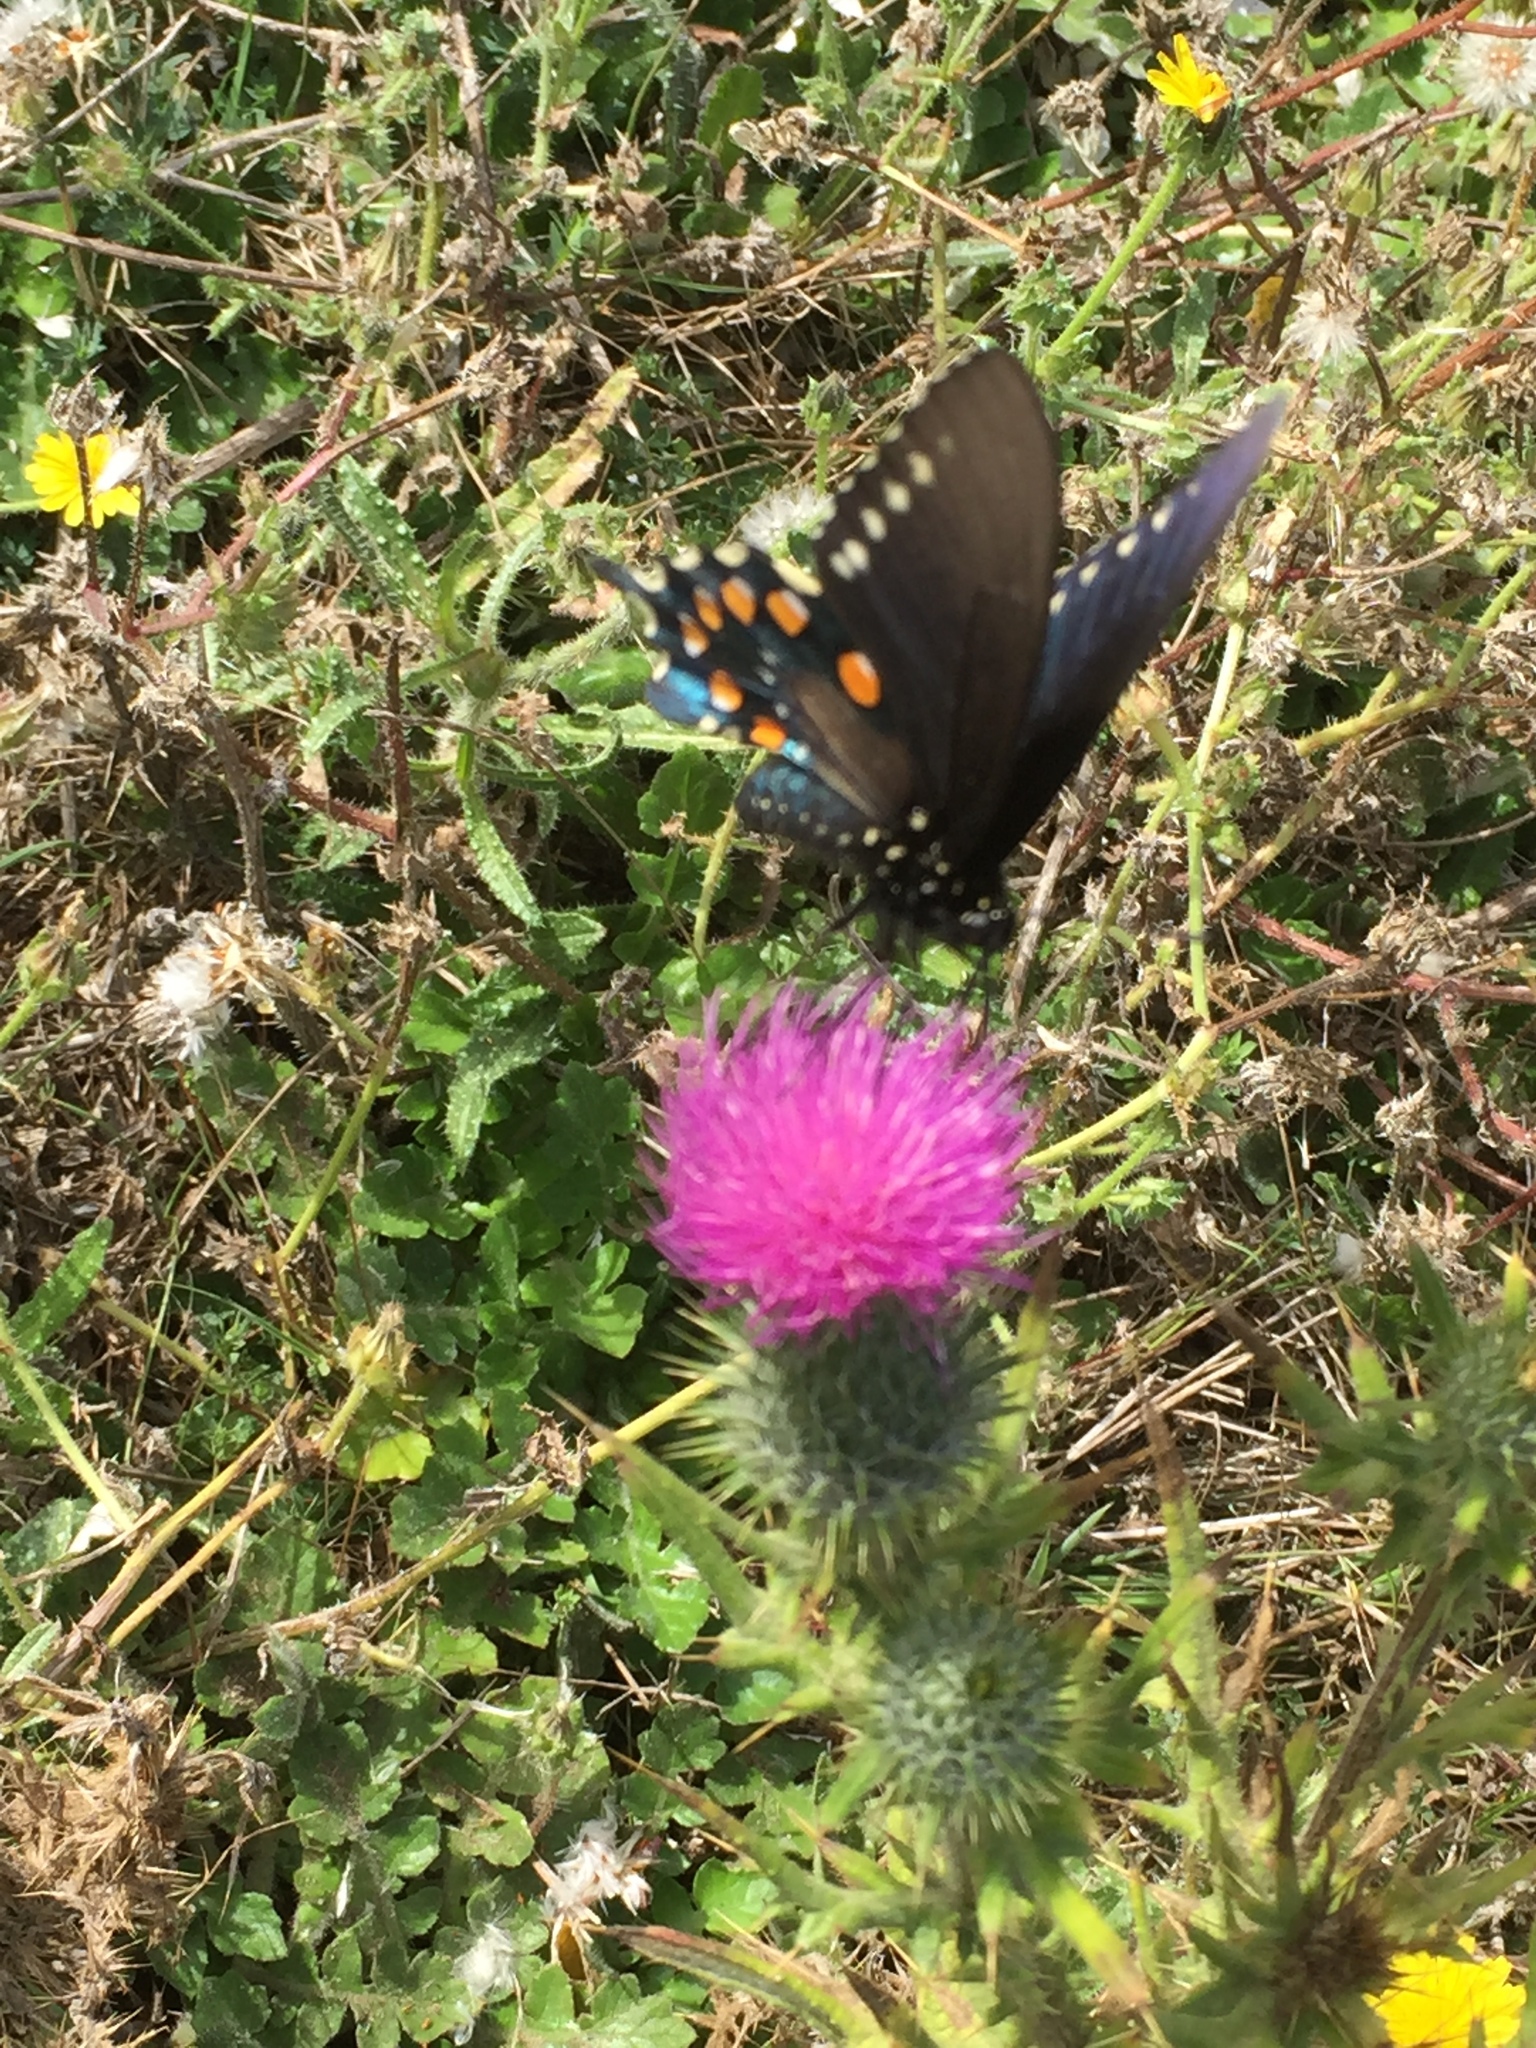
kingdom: Animalia
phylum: Arthropoda
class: Insecta
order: Lepidoptera
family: Papilionidae
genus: Battus
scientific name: Battus philenor
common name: Pipevine swallowtail
